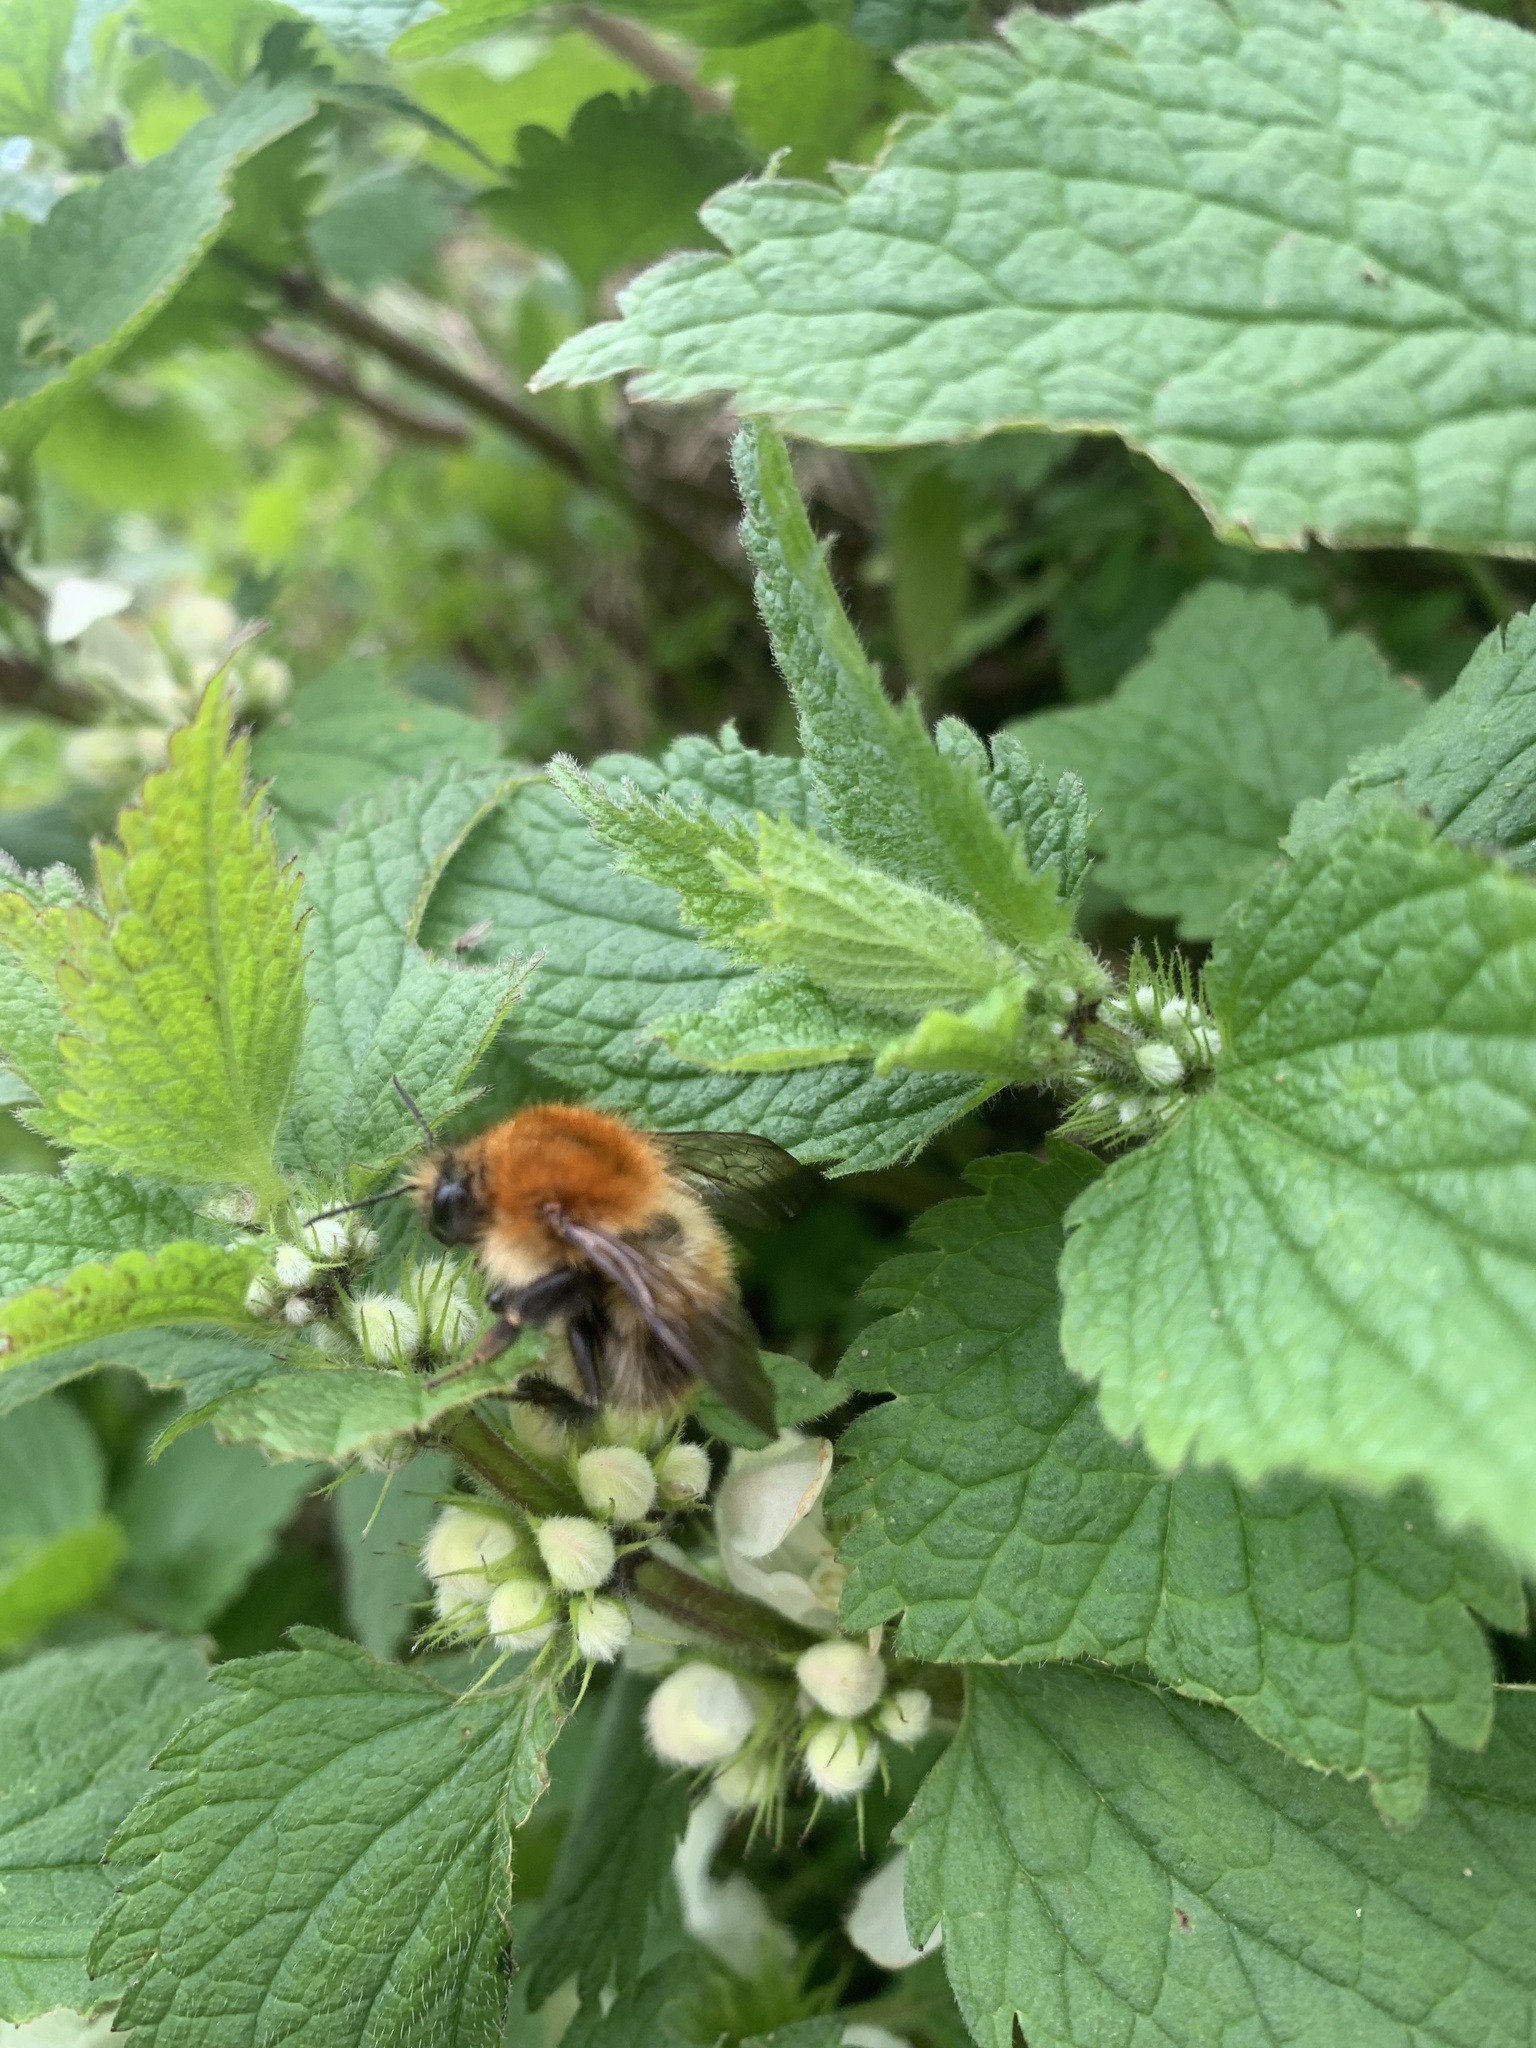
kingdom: Animalia
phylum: Arthropoda
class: Insecta
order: Hymenoptera
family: Apidae
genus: Bombus
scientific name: Bombus pascuorum
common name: Common carder bee
